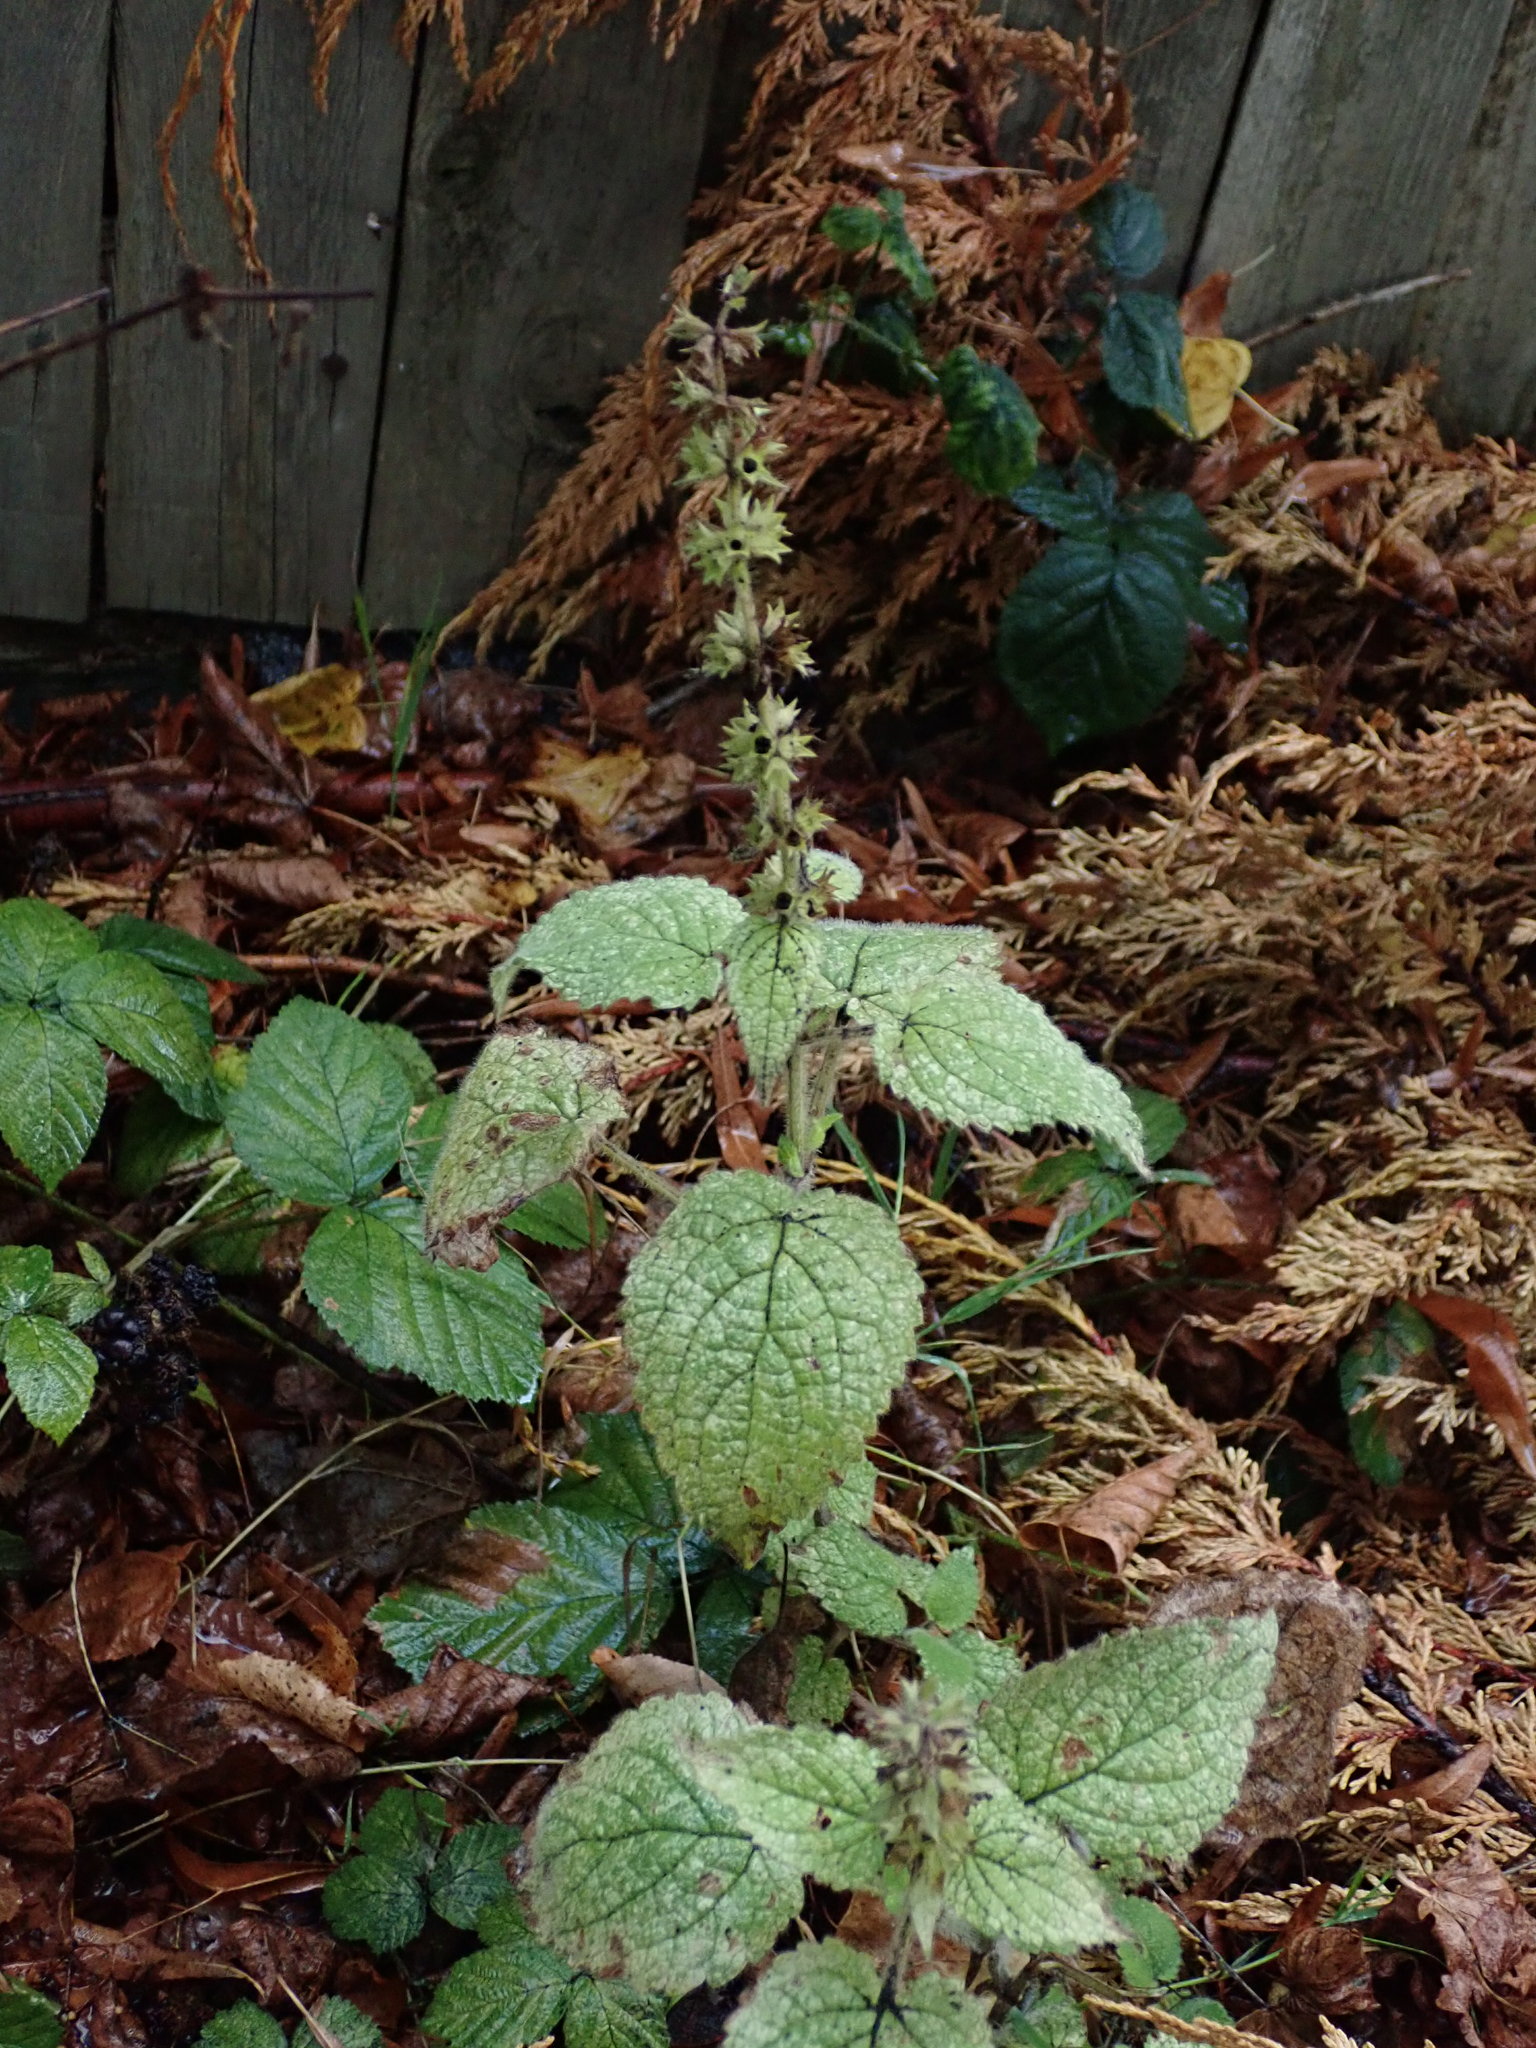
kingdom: Plantae
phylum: Tracheophyta
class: Magnoliopsida
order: Lamiales
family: Lamiaceae
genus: Stachys
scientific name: Stachys sylvatica
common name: Hedge woundwort
